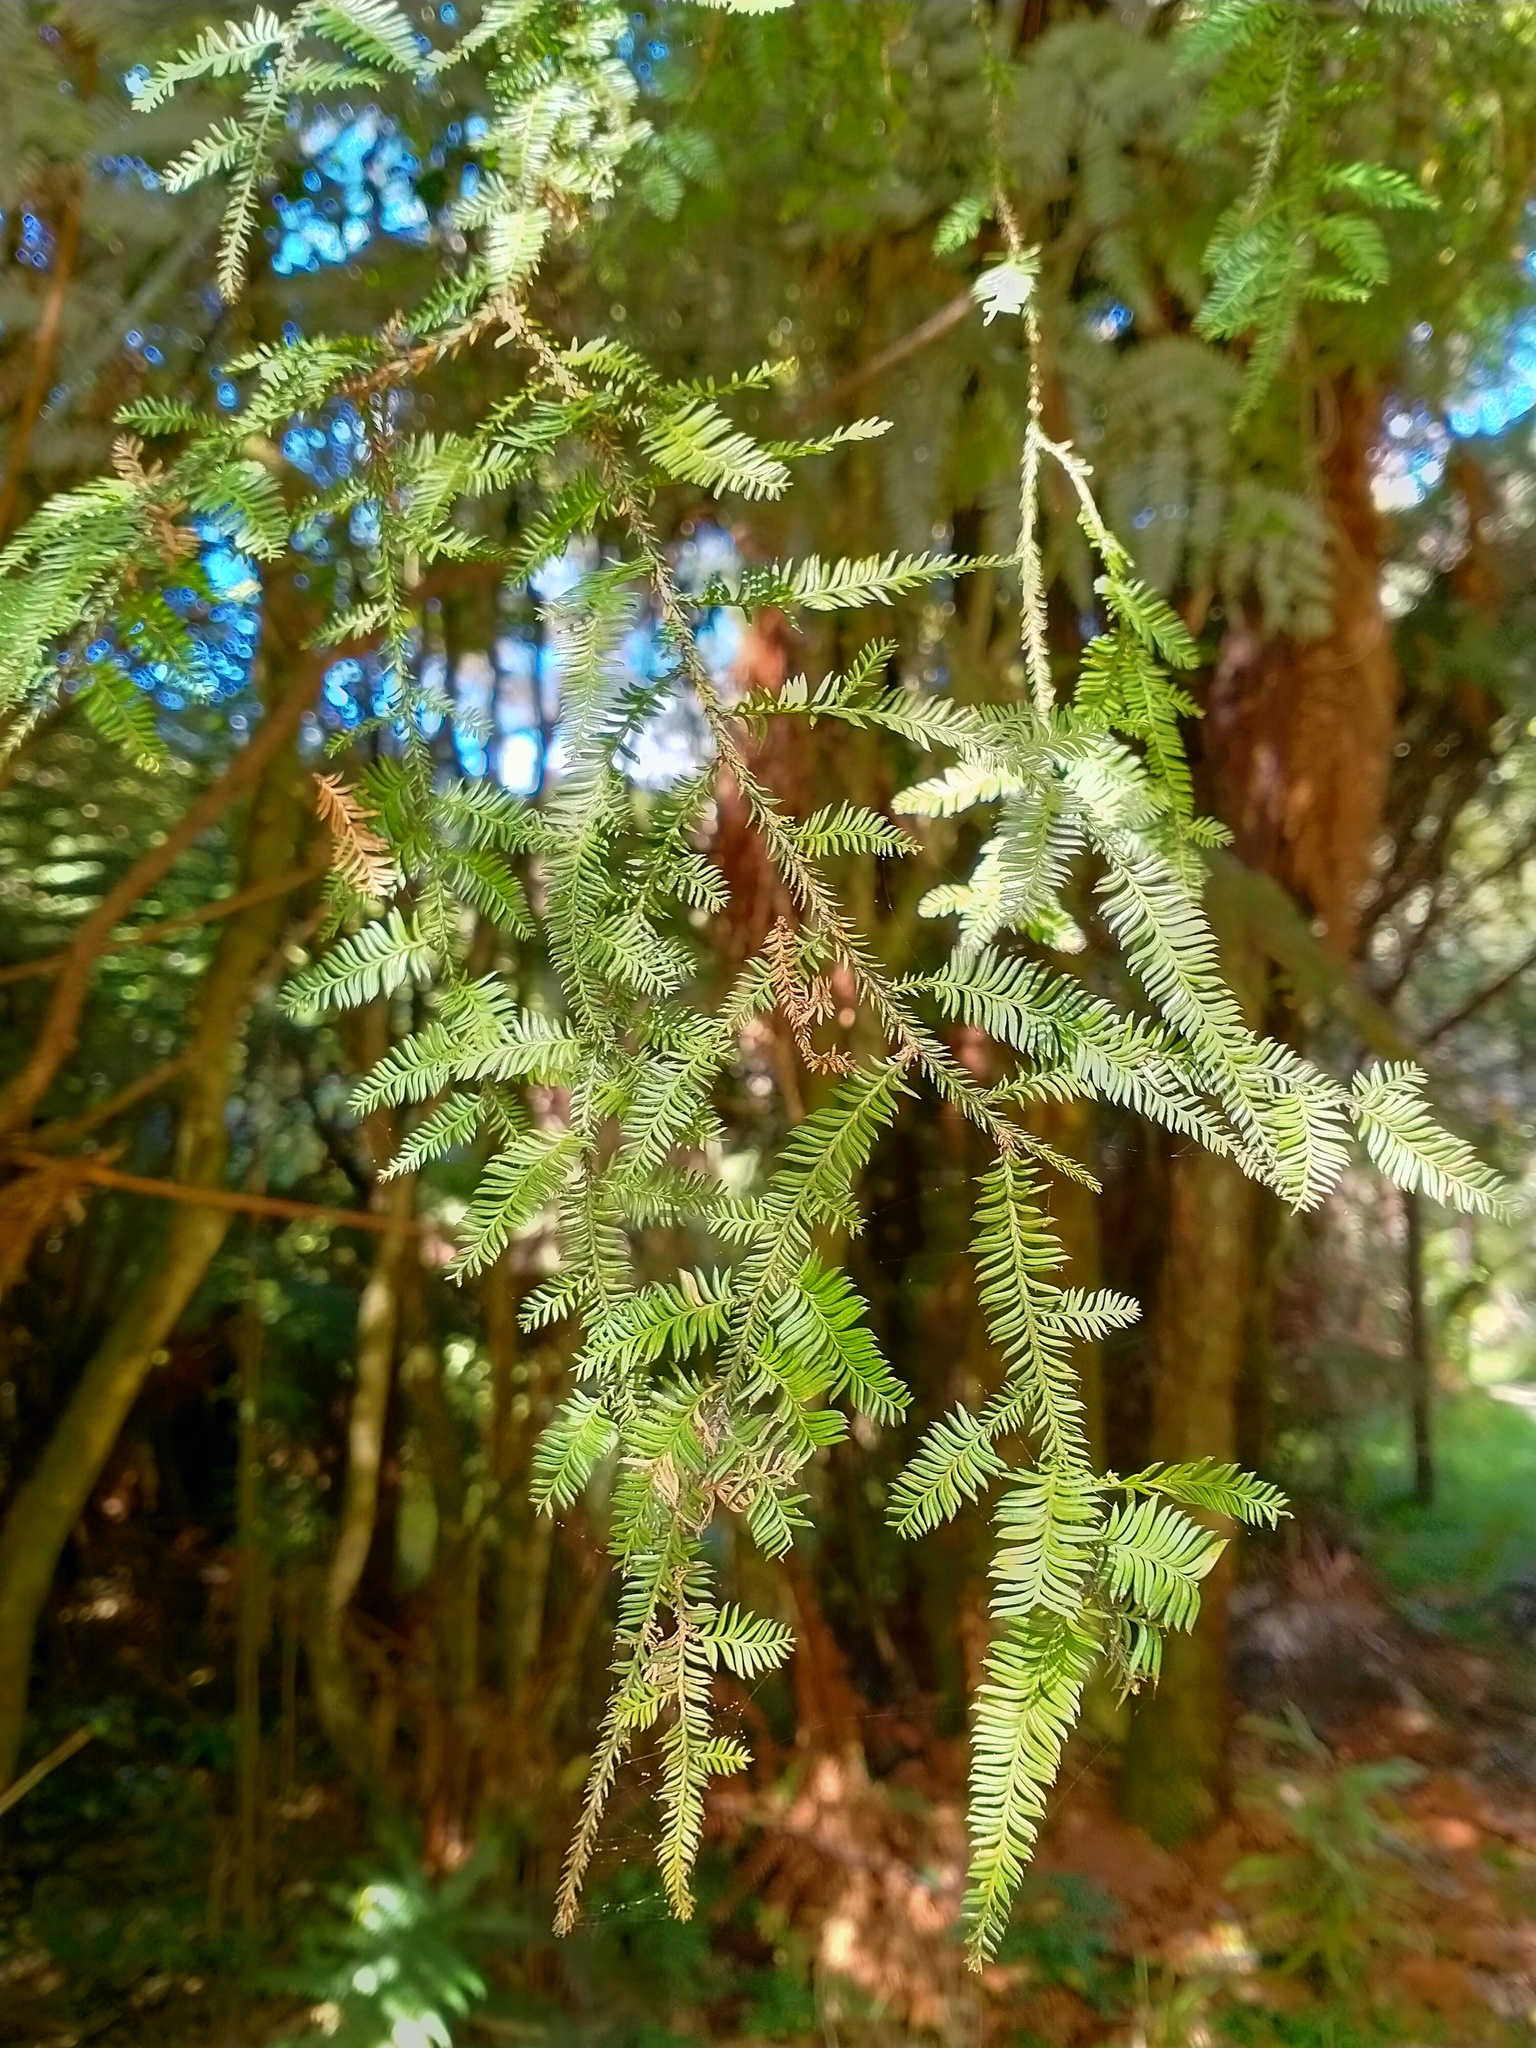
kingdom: Plantae
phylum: Tracheophyta
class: Pinopsida
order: Pinales
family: Podocarpaceae
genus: Dacrycarpus
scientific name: Dacrycarpus dacrydioides
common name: White pine
